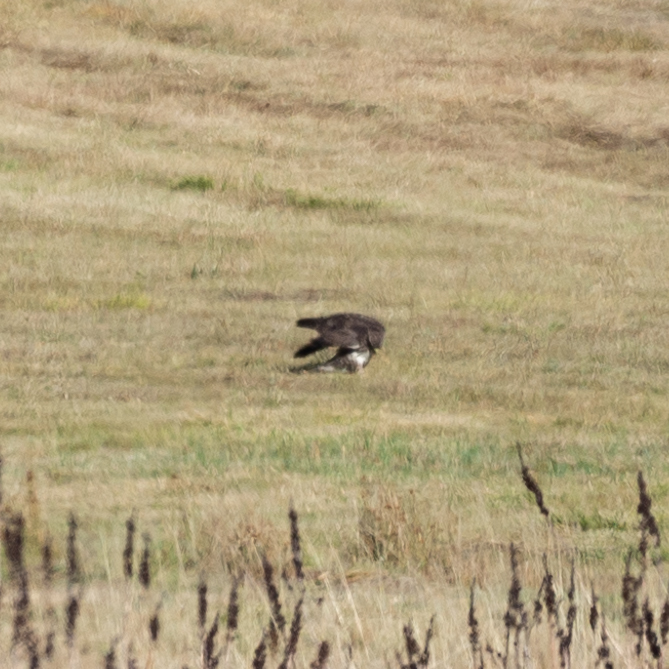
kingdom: Animalia
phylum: Chordata
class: Aves
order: Accipitriformes
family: Accipitridae
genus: Buteo
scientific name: Buteo buteo
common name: Common buzzard
